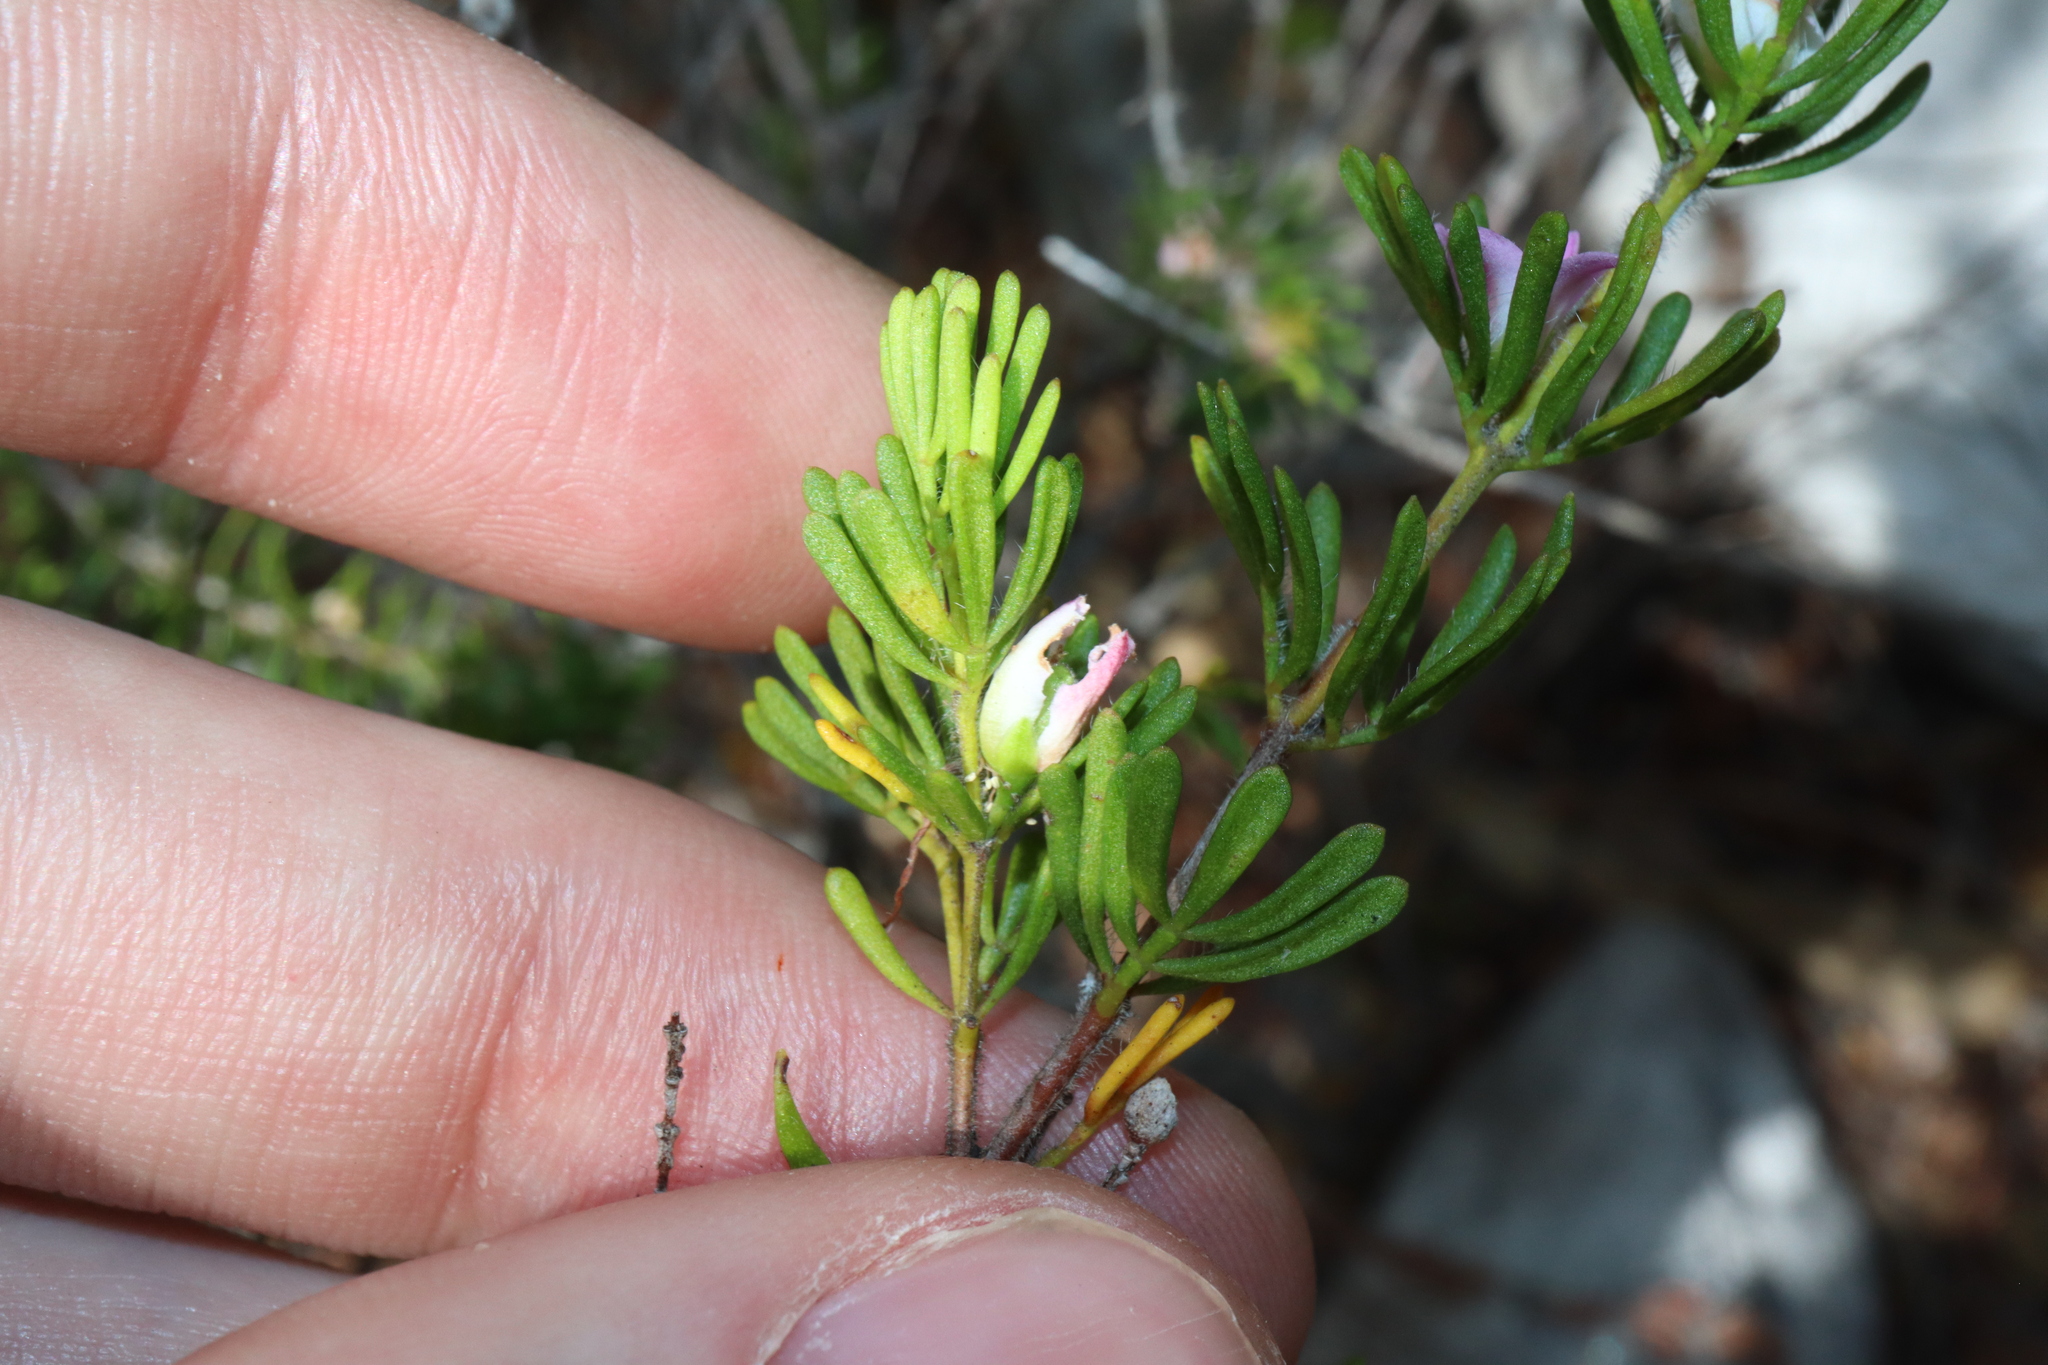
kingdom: Plantae
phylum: Tracheophyta
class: Magnoliopsida
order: Sapindales
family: Rutaceae
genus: Boronia
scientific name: Boronia albiflora
